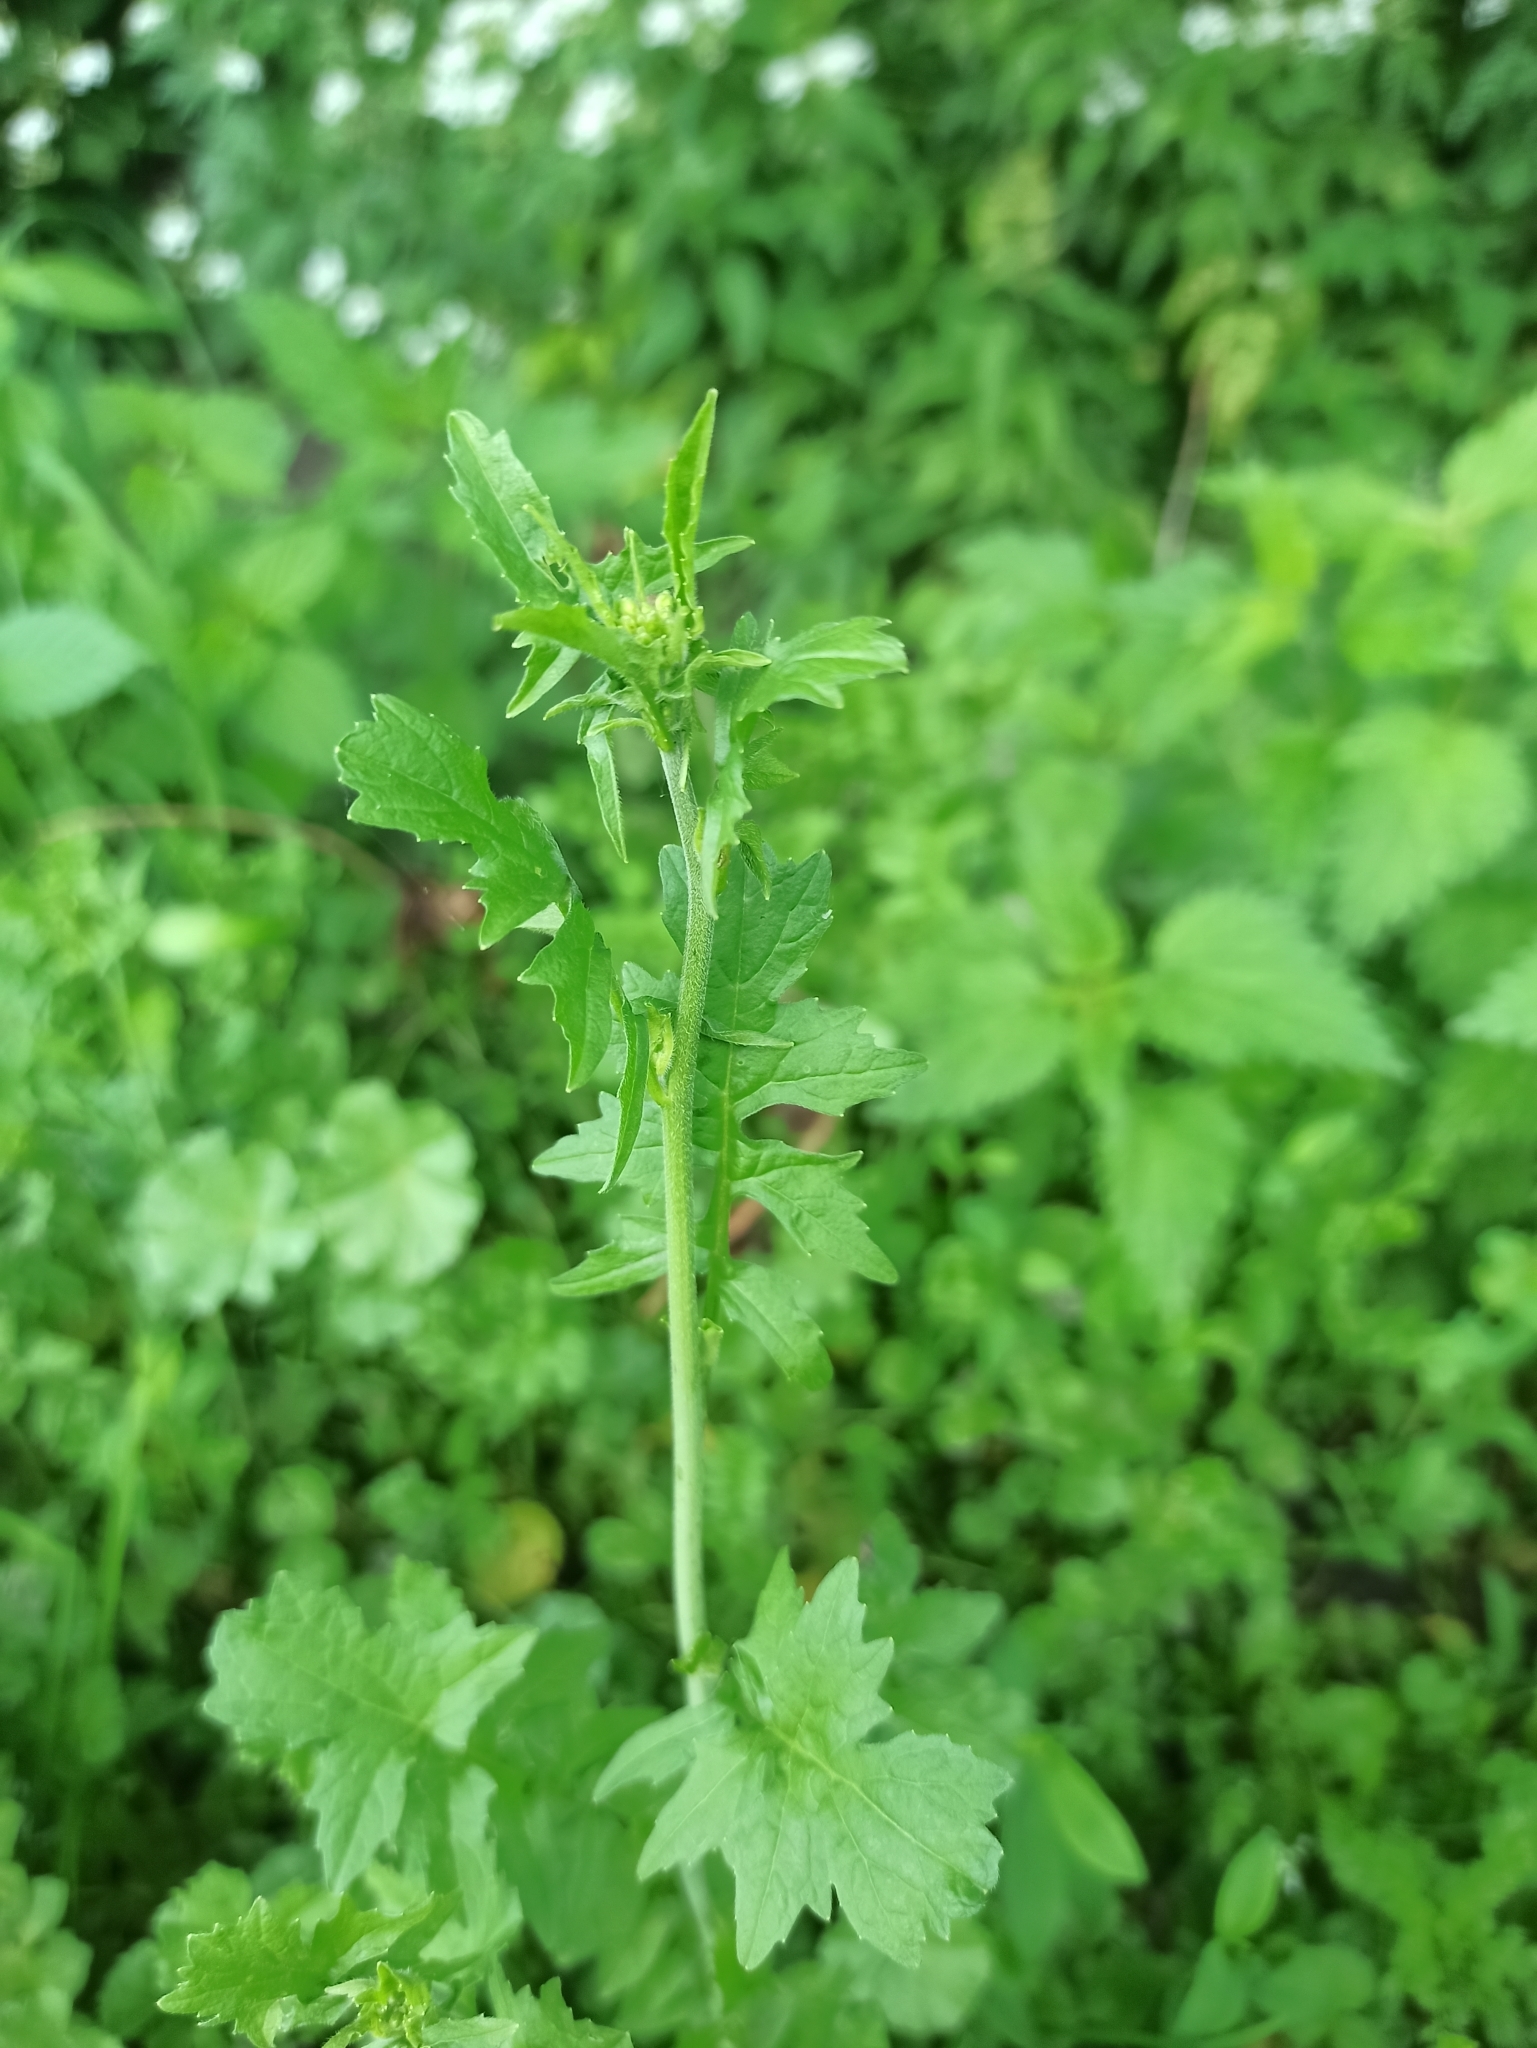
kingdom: Plantae
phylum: Tracheophyta
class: Magnoliopsida
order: Brassicales
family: Brassicaceae
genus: Sisymbrium
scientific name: Sisymbrium officinale
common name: Hedge mustard
